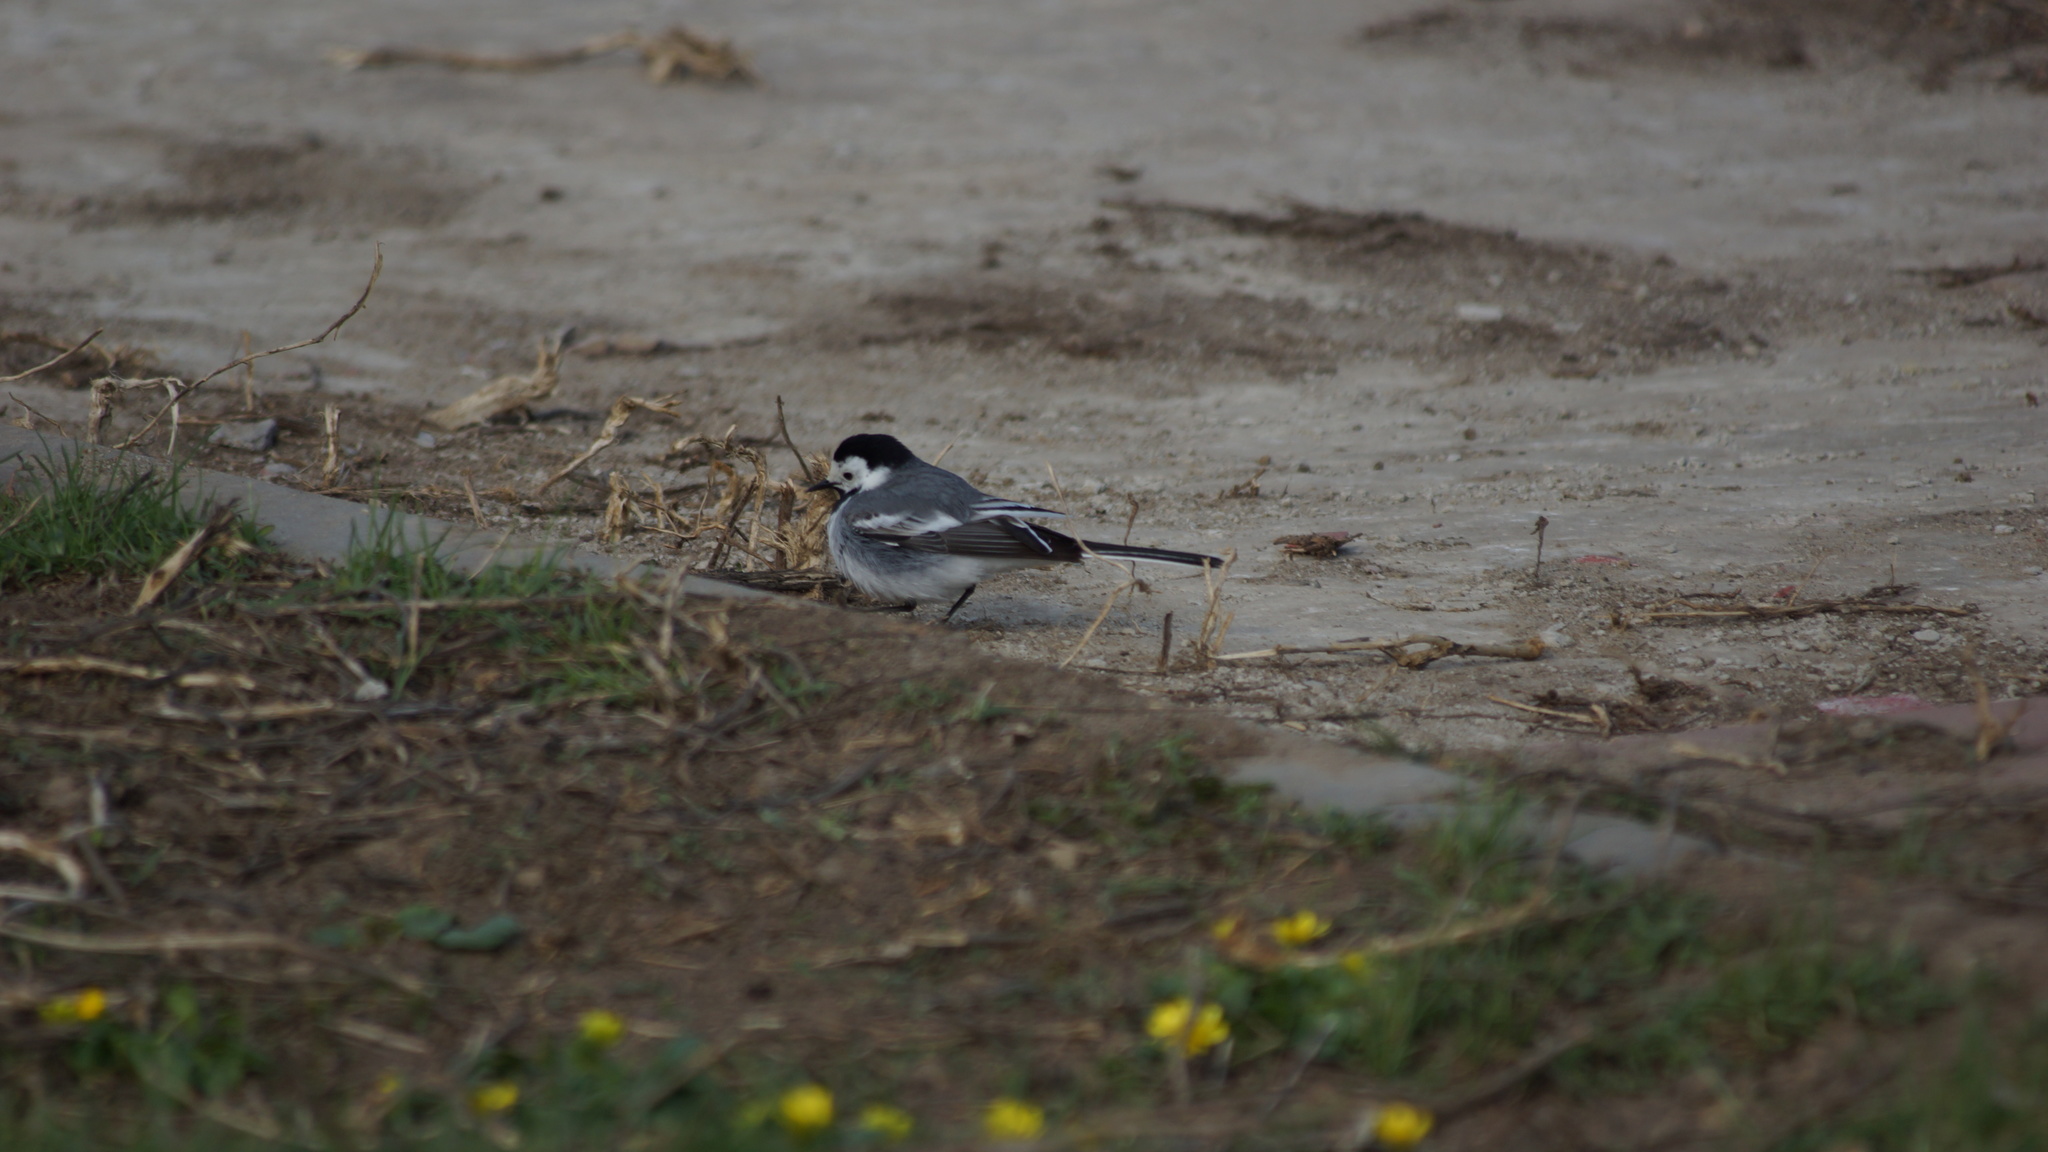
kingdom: Animalia
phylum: Chordata
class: Aves
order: Passeriformes
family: Motacillidae
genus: Motacilla
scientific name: Motacilla alba
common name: White wagtail
